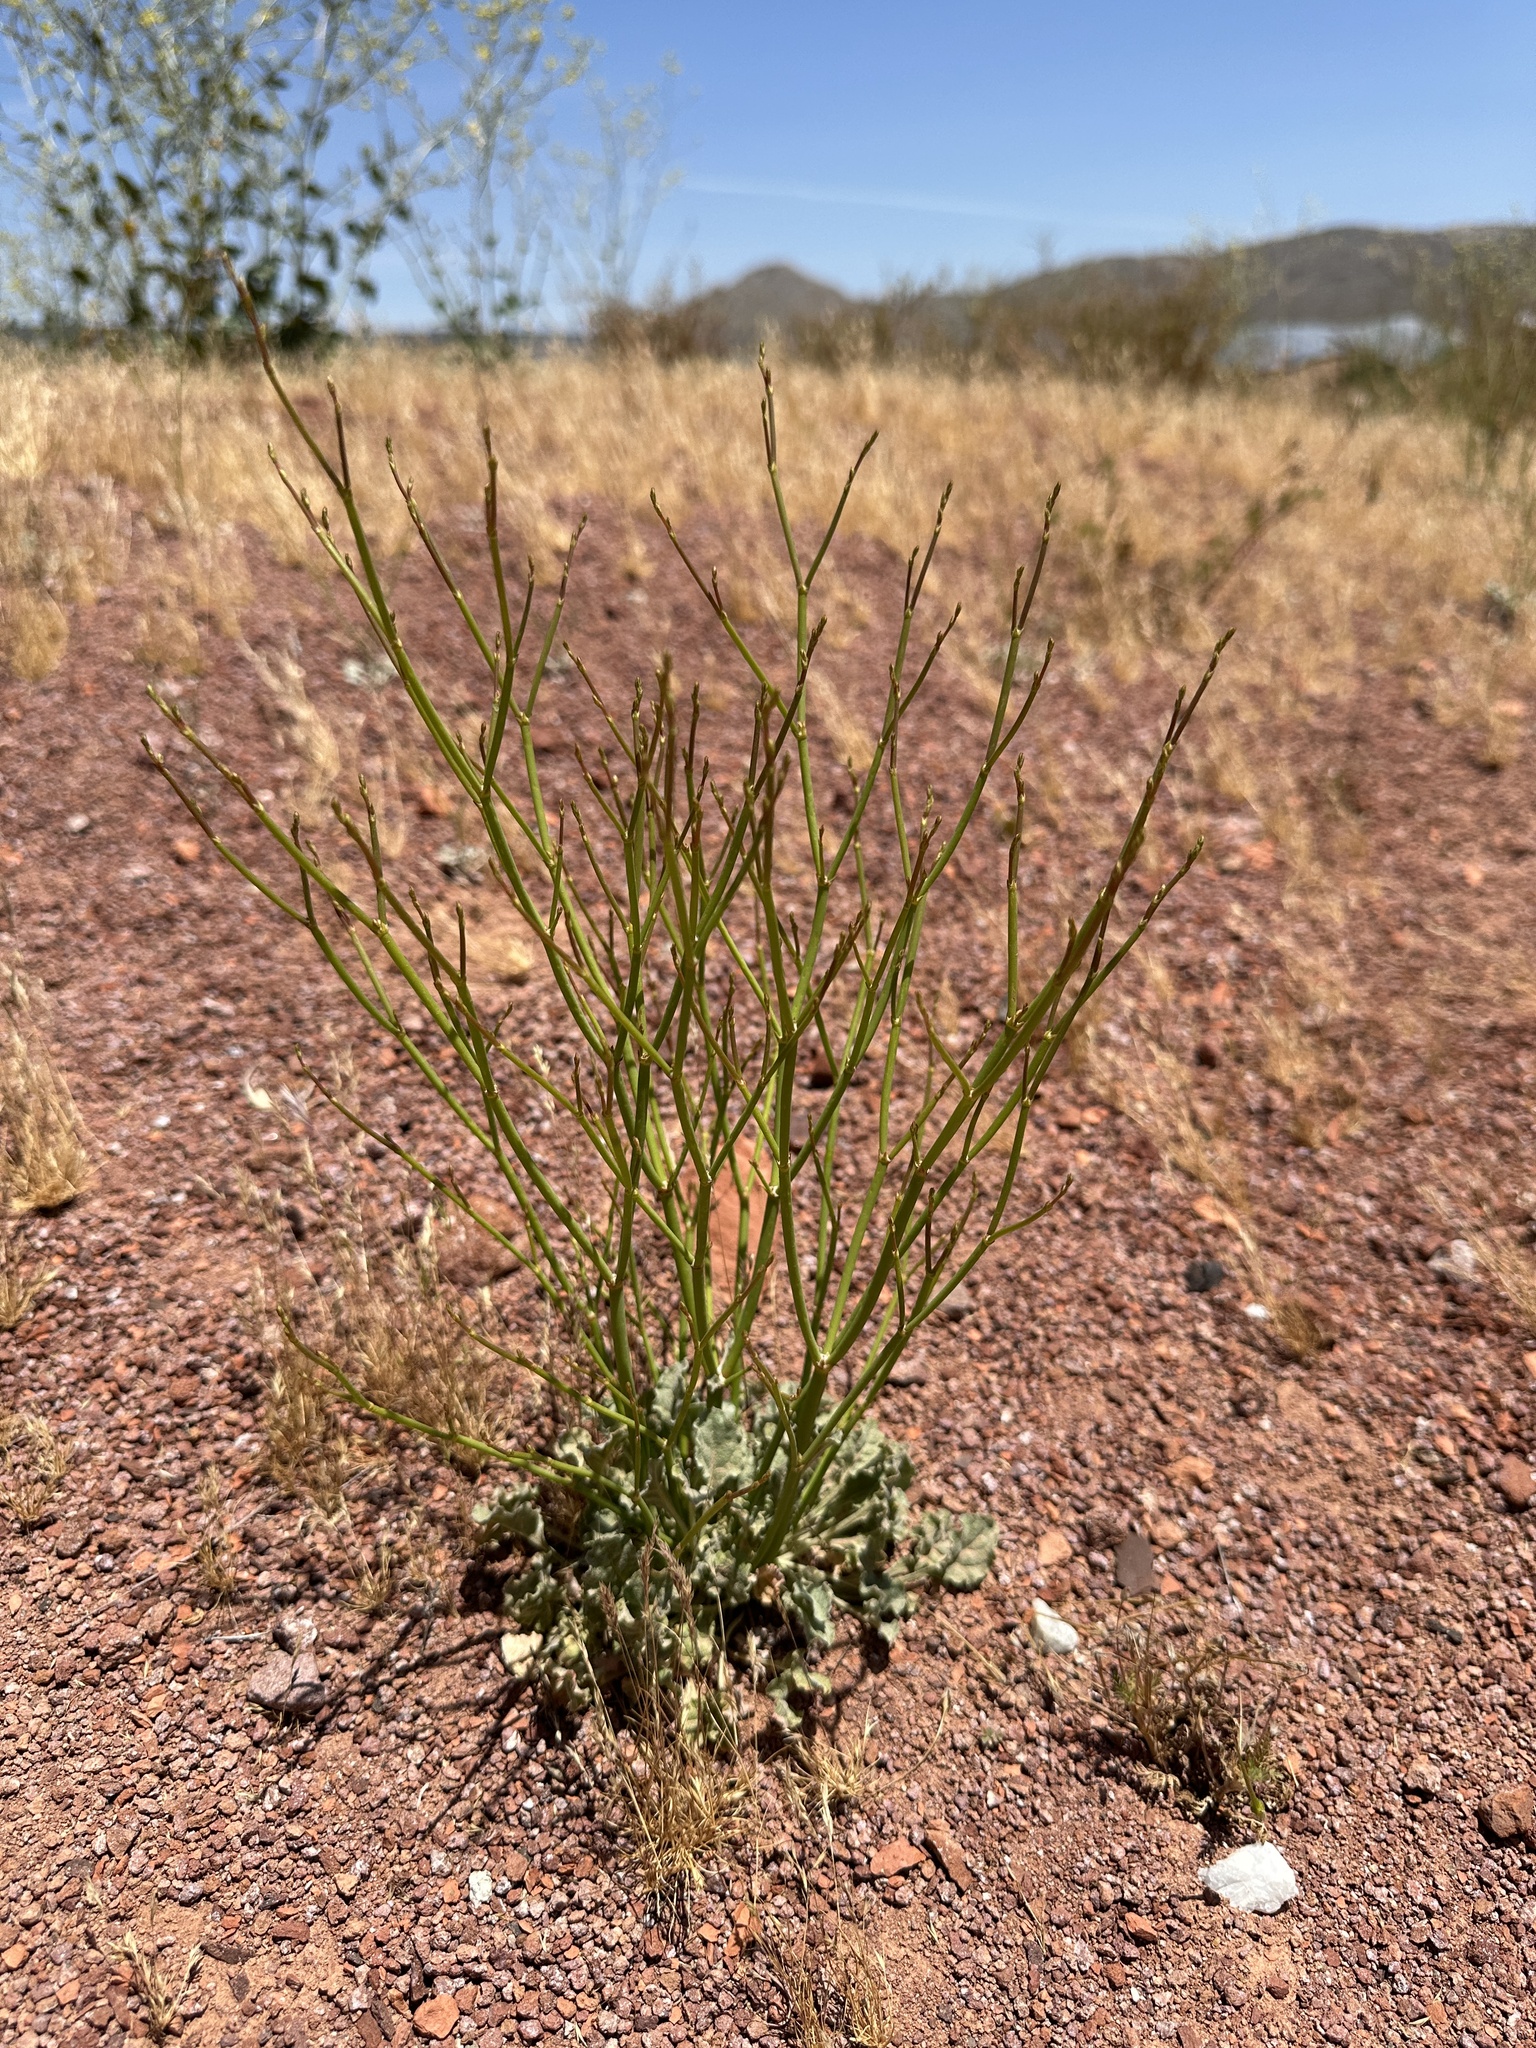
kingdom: Plantae
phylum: Tracheophyta
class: Magnoliopsida
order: Caryophyllales
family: Polygonaceae
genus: Eriogonum
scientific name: Eriogonum gracile
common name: Slender woolly buckwheat
